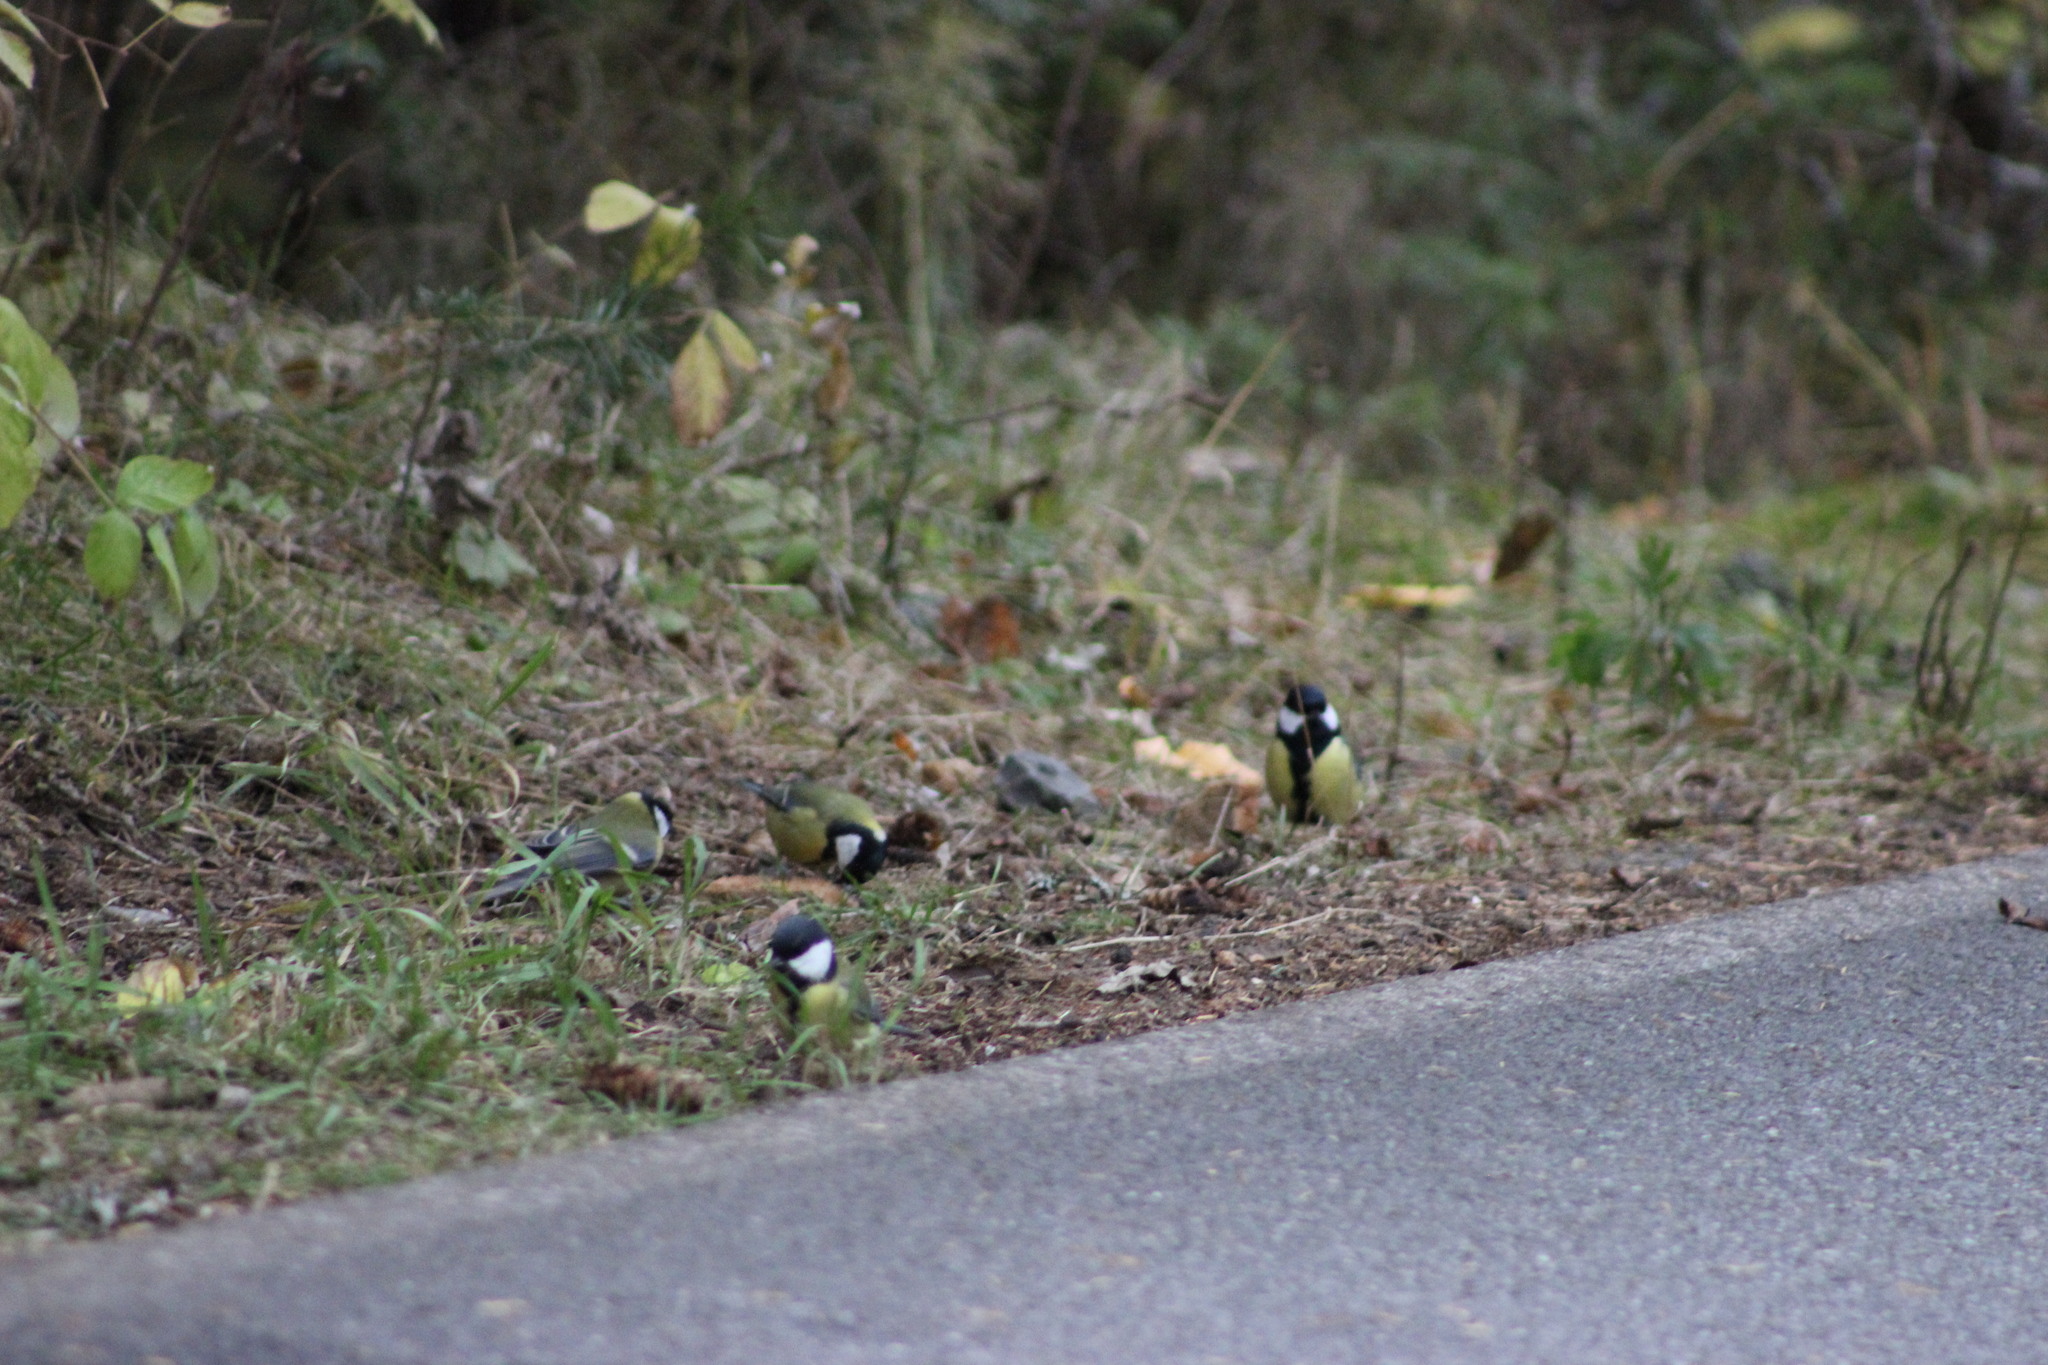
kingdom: Animalia
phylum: Chordata
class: Aves
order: Passeriformes
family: Paridae
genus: Parus
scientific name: Parus major
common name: Great tit
